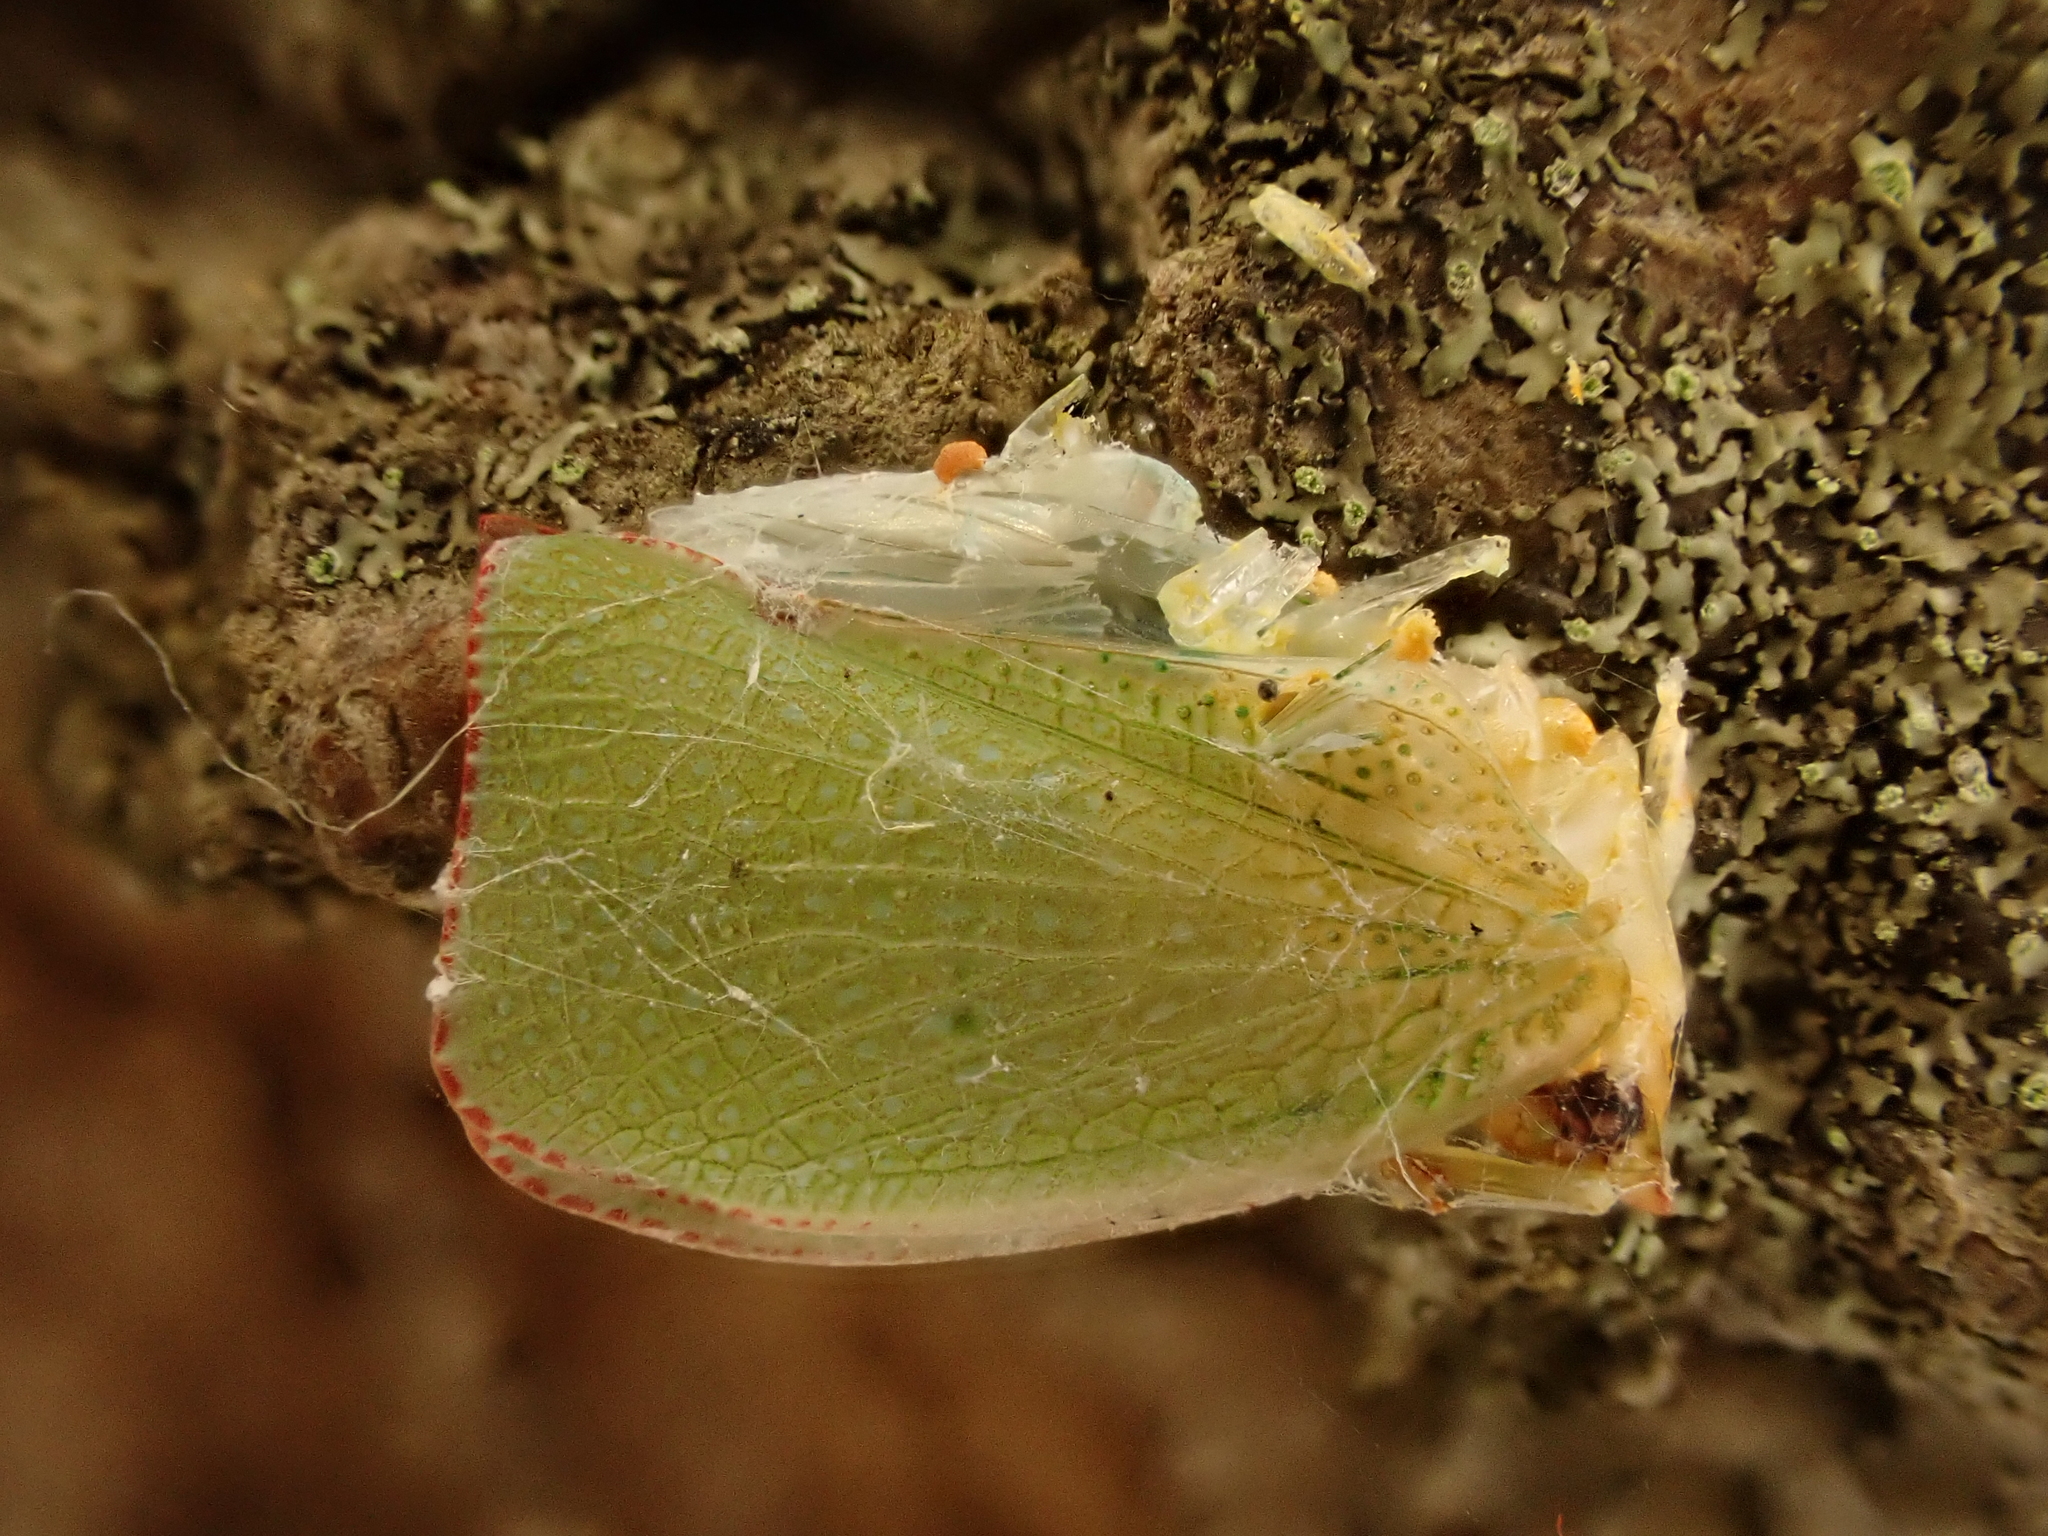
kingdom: Animalia
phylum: Arthropoda
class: Insecta
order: Hemiptera
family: Flatidae
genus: Siphanta
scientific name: Siphanta acuta
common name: Torpedo bug
